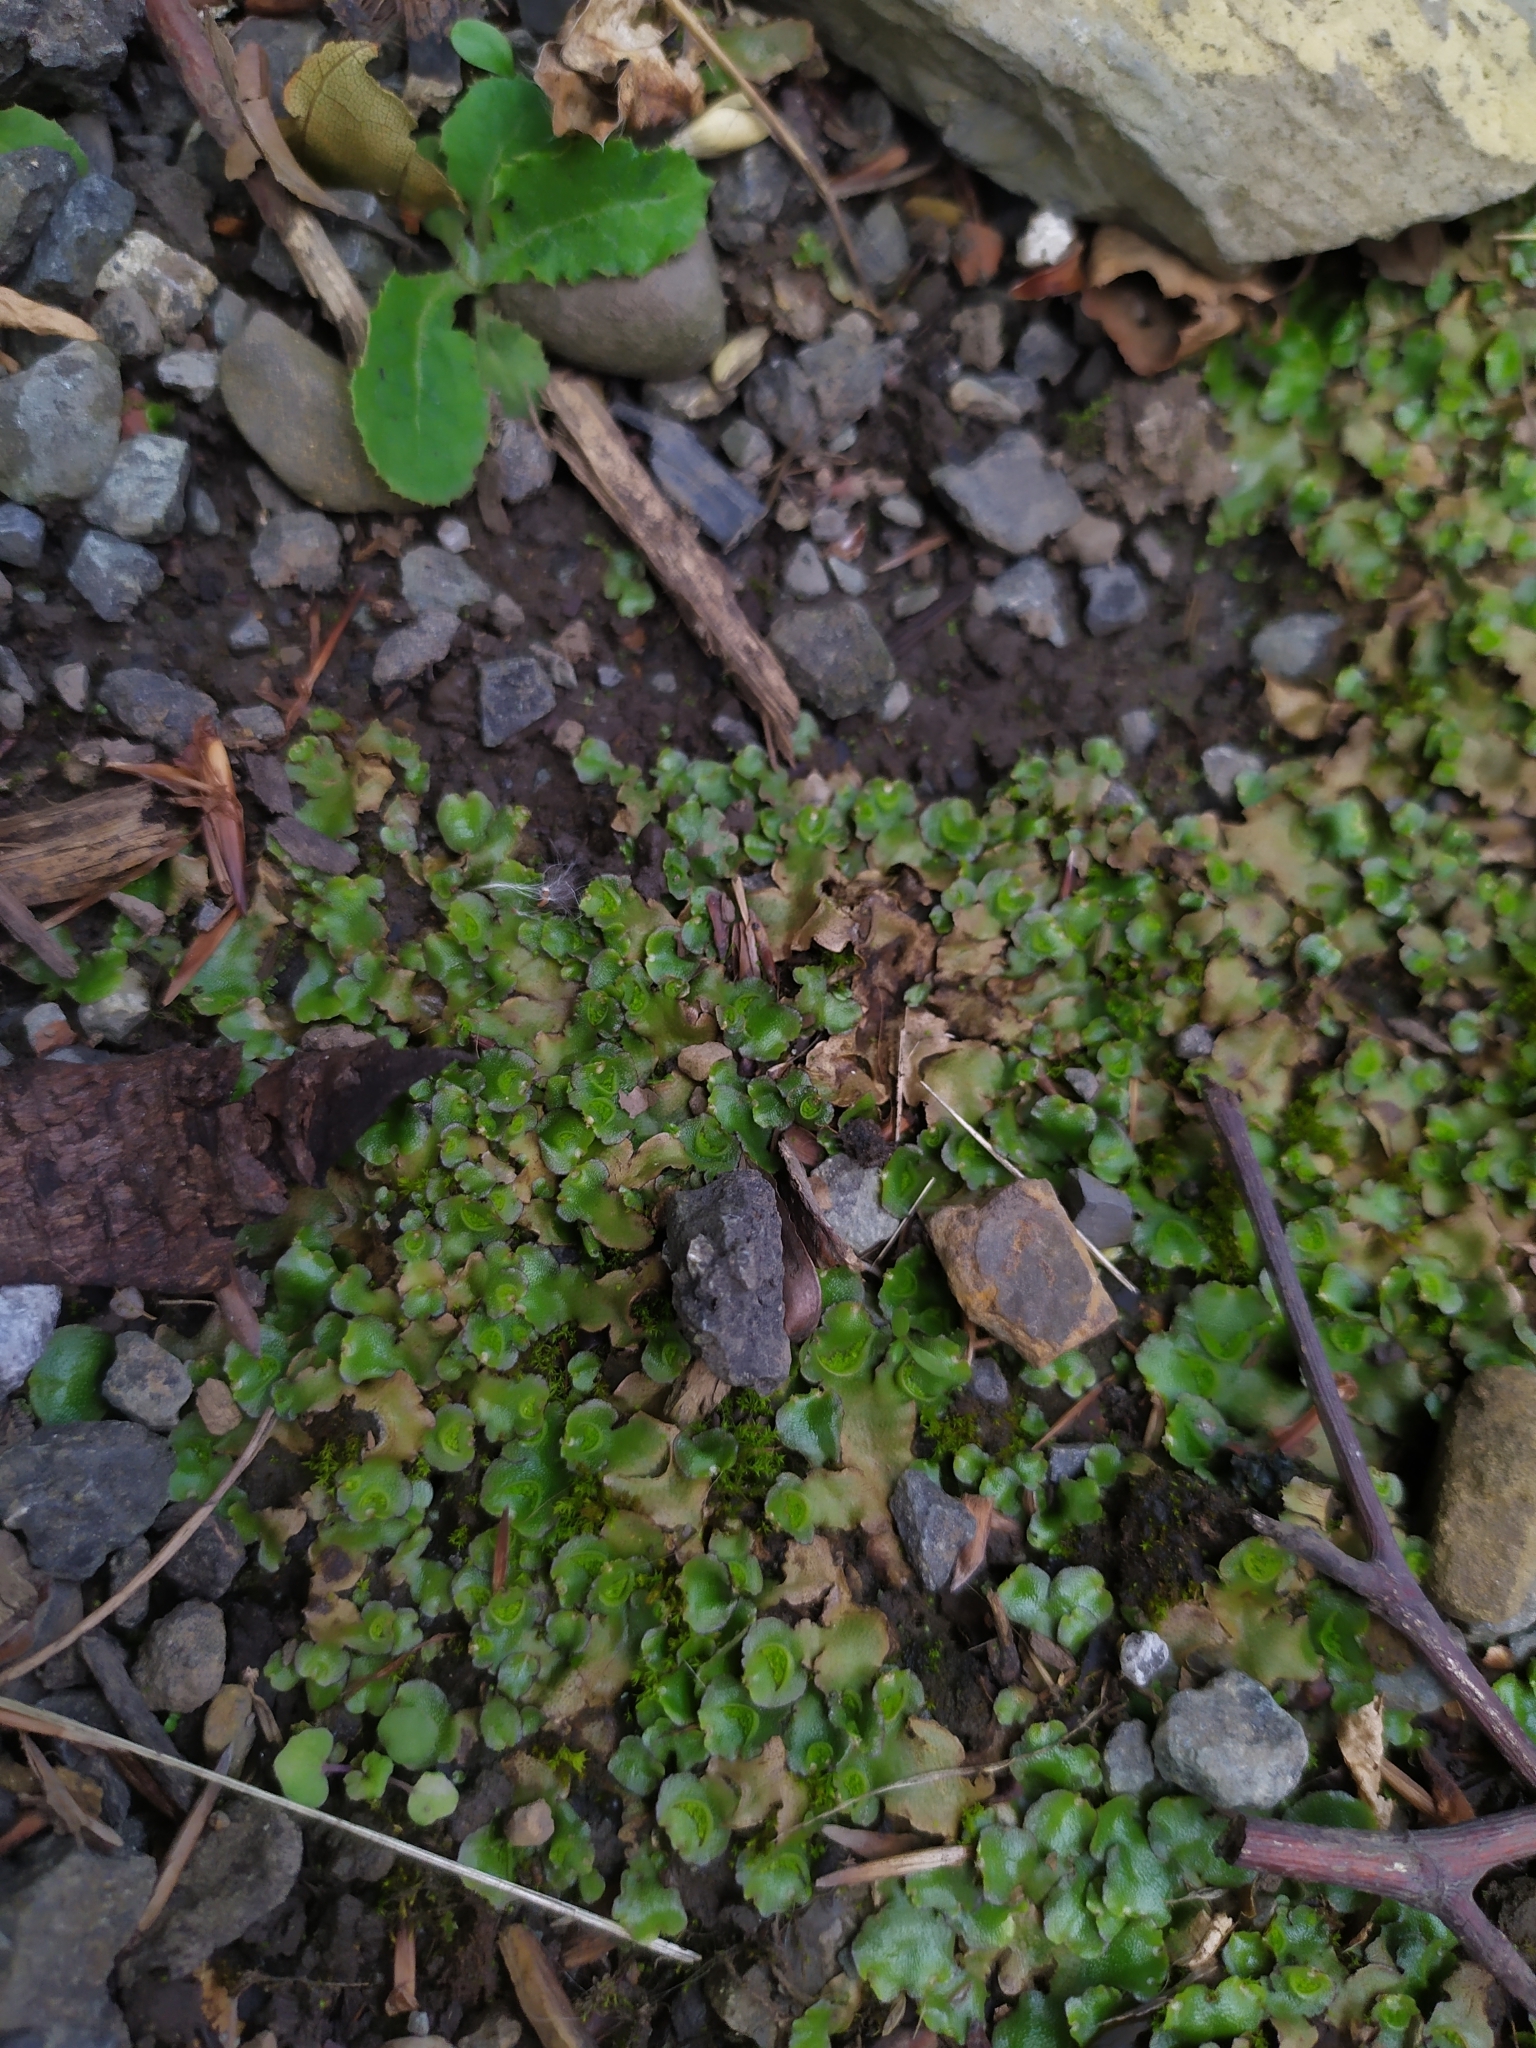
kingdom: Plantae
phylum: Marchantiophyta
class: Marchantiopsida
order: Lunulariales
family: Lunulariaceae
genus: Lunularia
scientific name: Lunularia cruciata
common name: Crescent-cup liverwort
